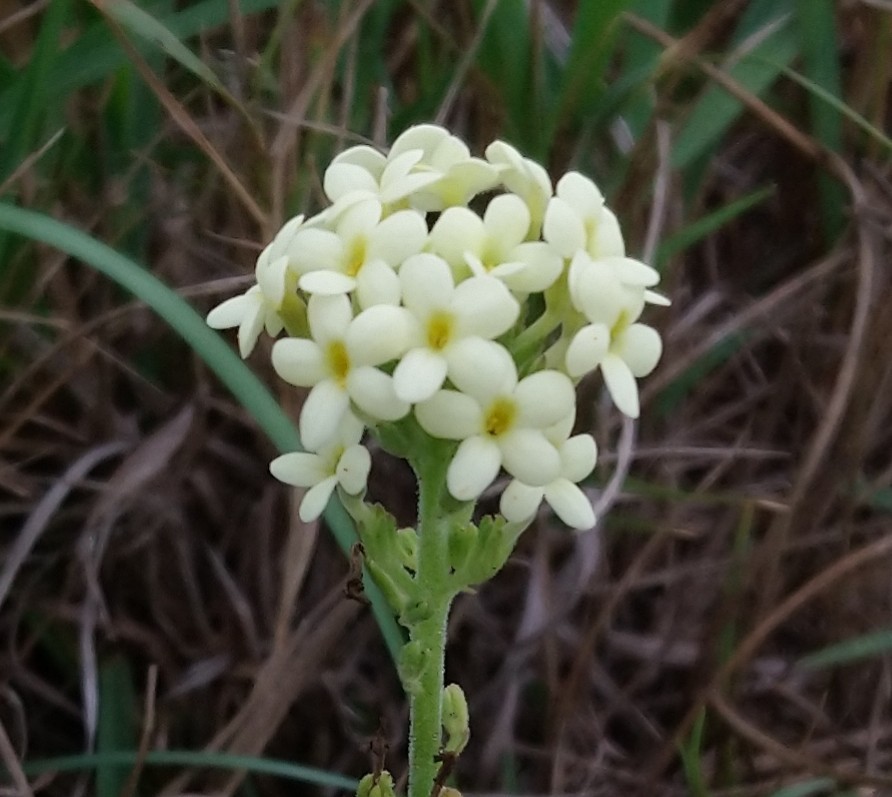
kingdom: Plantae
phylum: Tracheophyta
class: Magnoliopsida
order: Lamiales
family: Scrophulariaceae
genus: Manulea
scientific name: Manulea bellidifolia
